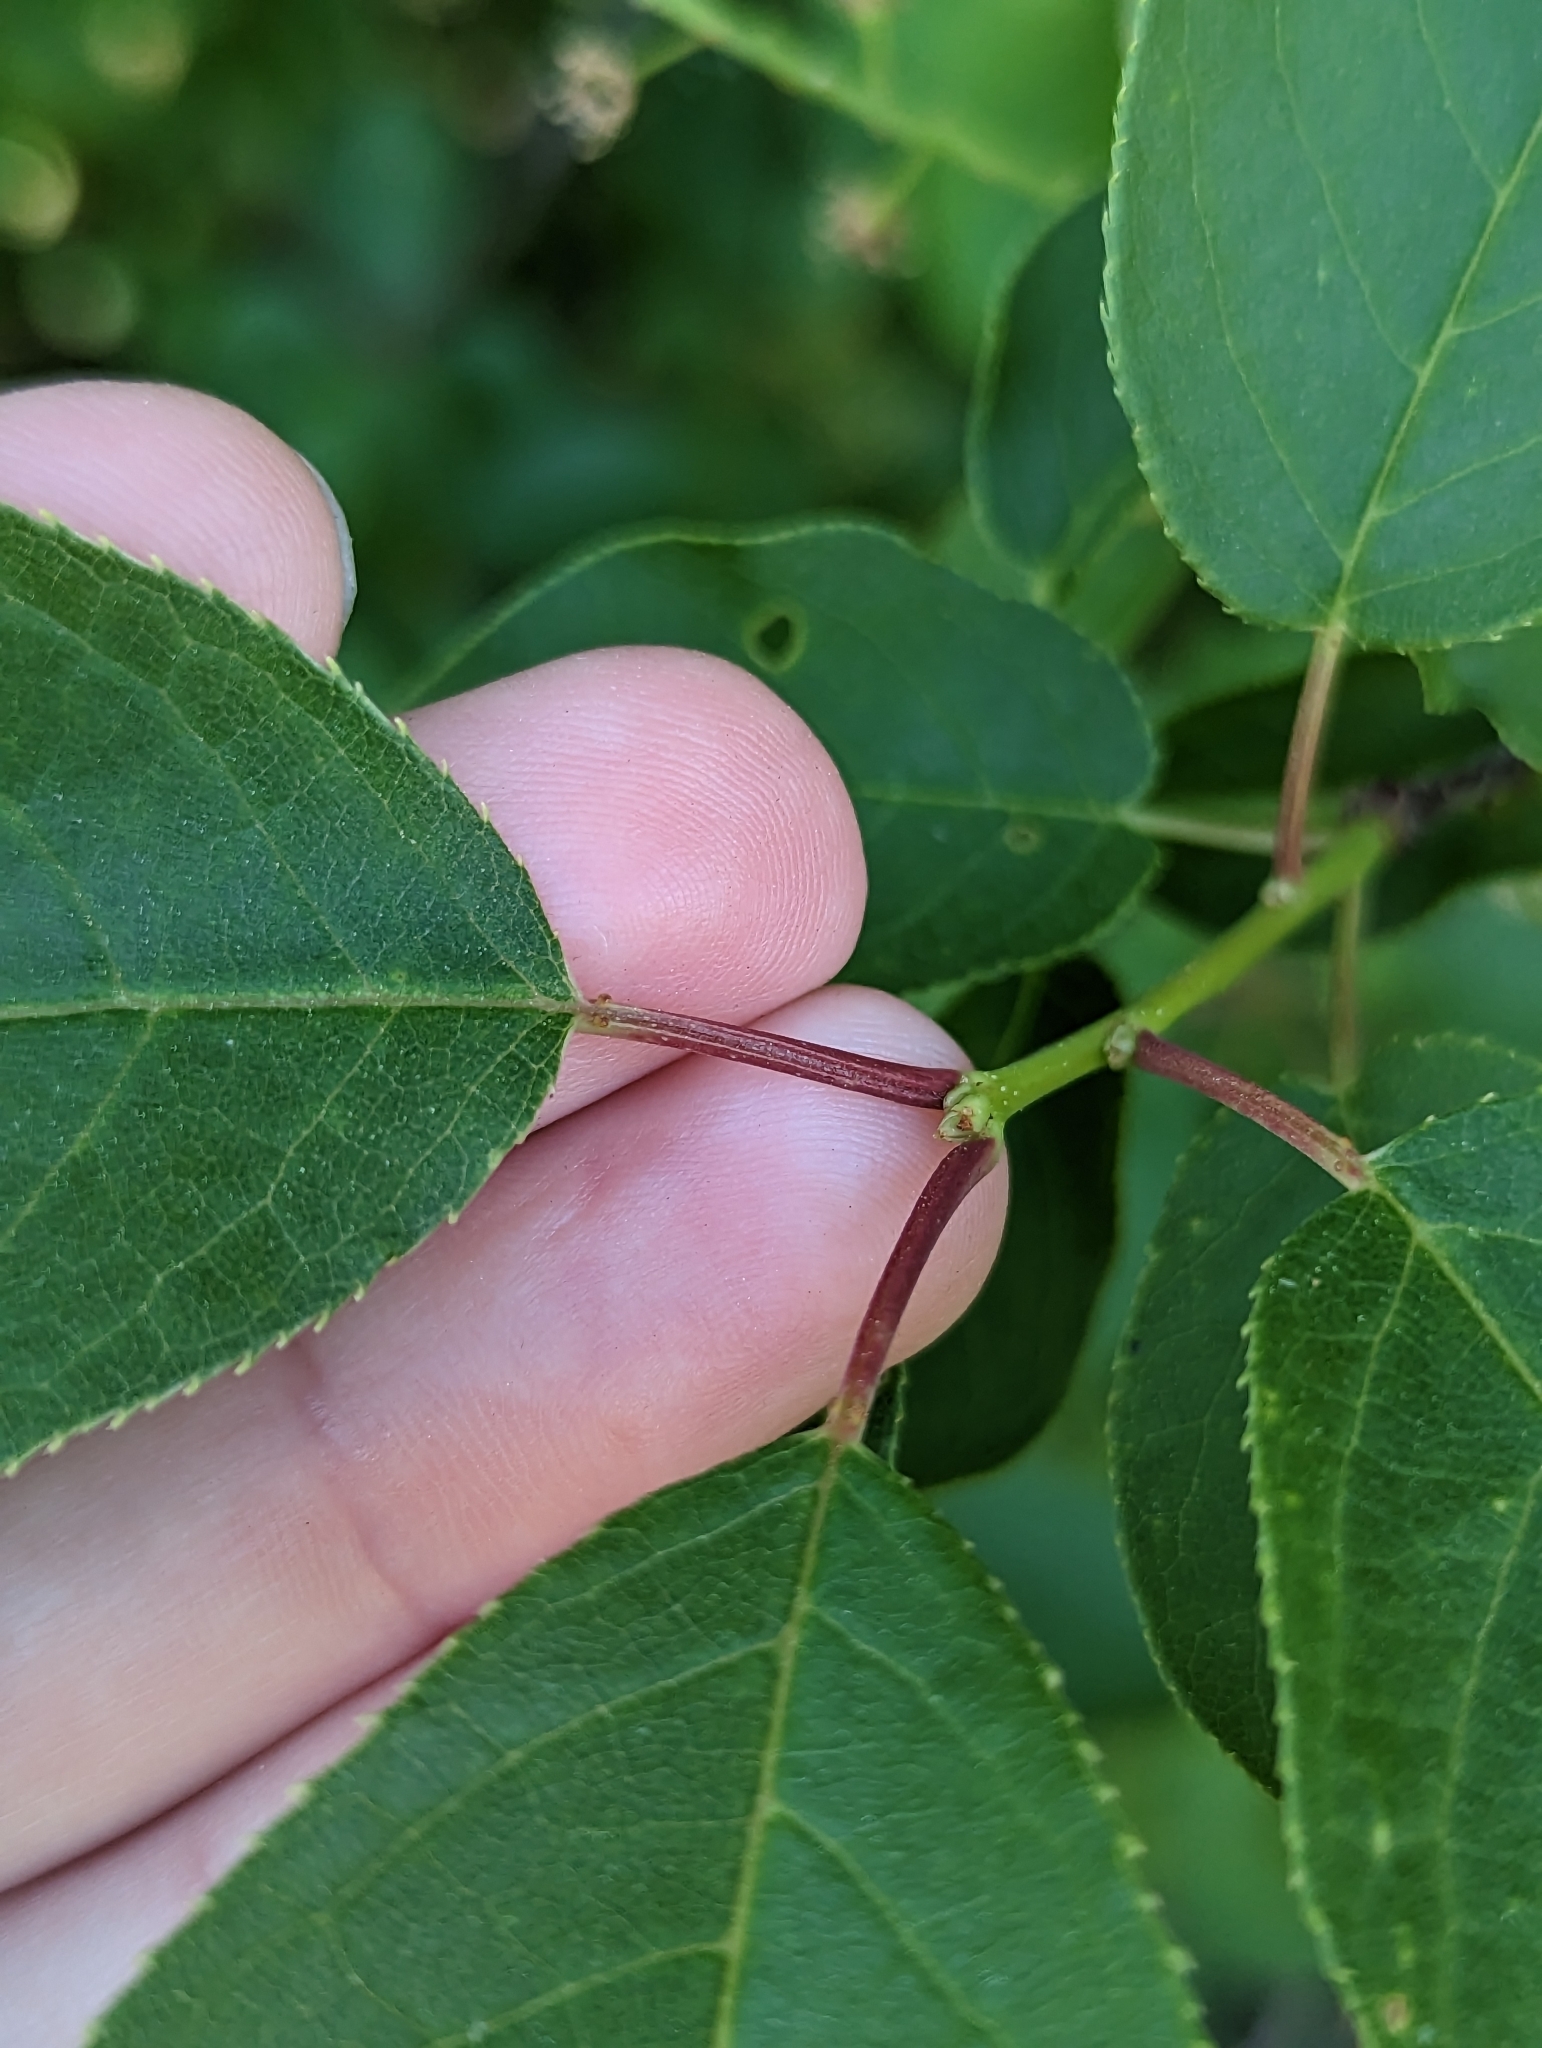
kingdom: Plantae
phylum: Tracheophyta
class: Magnoliopsida
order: Rosales
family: Rosaceae
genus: Prunus
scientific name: Prunus virginiana
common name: Chokecherry
